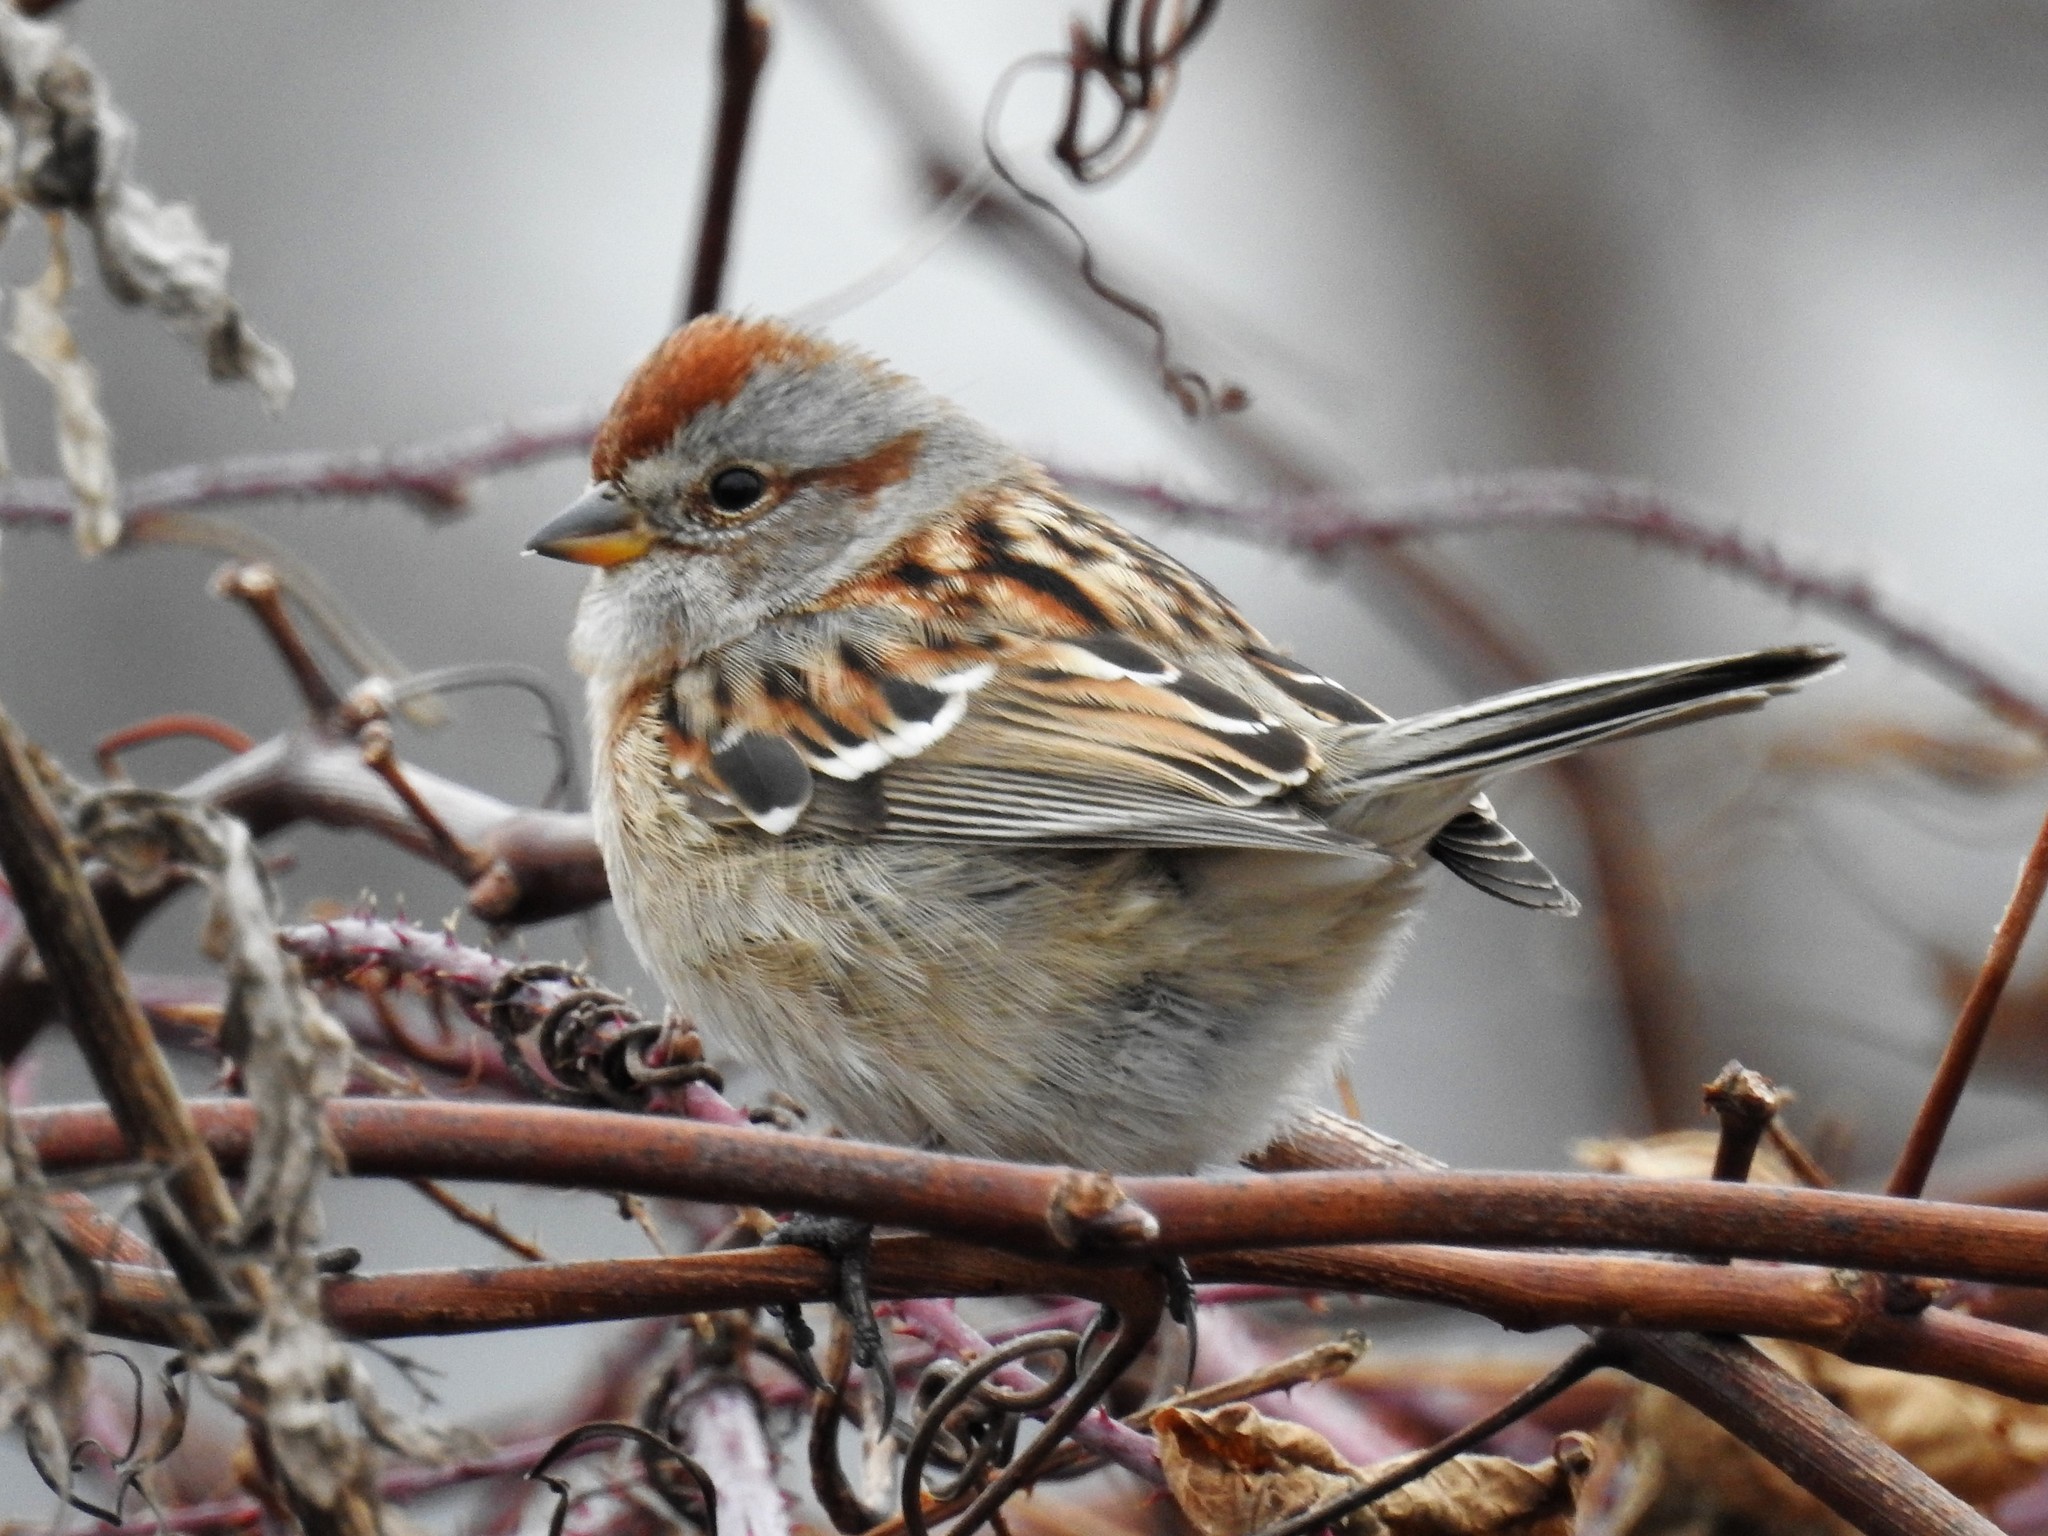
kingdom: Animalia
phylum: Chordata
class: Aves
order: Passeriformes
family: Passerellidae
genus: Spizelloides
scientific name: Spizelloides arborea
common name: American tree sparrow
